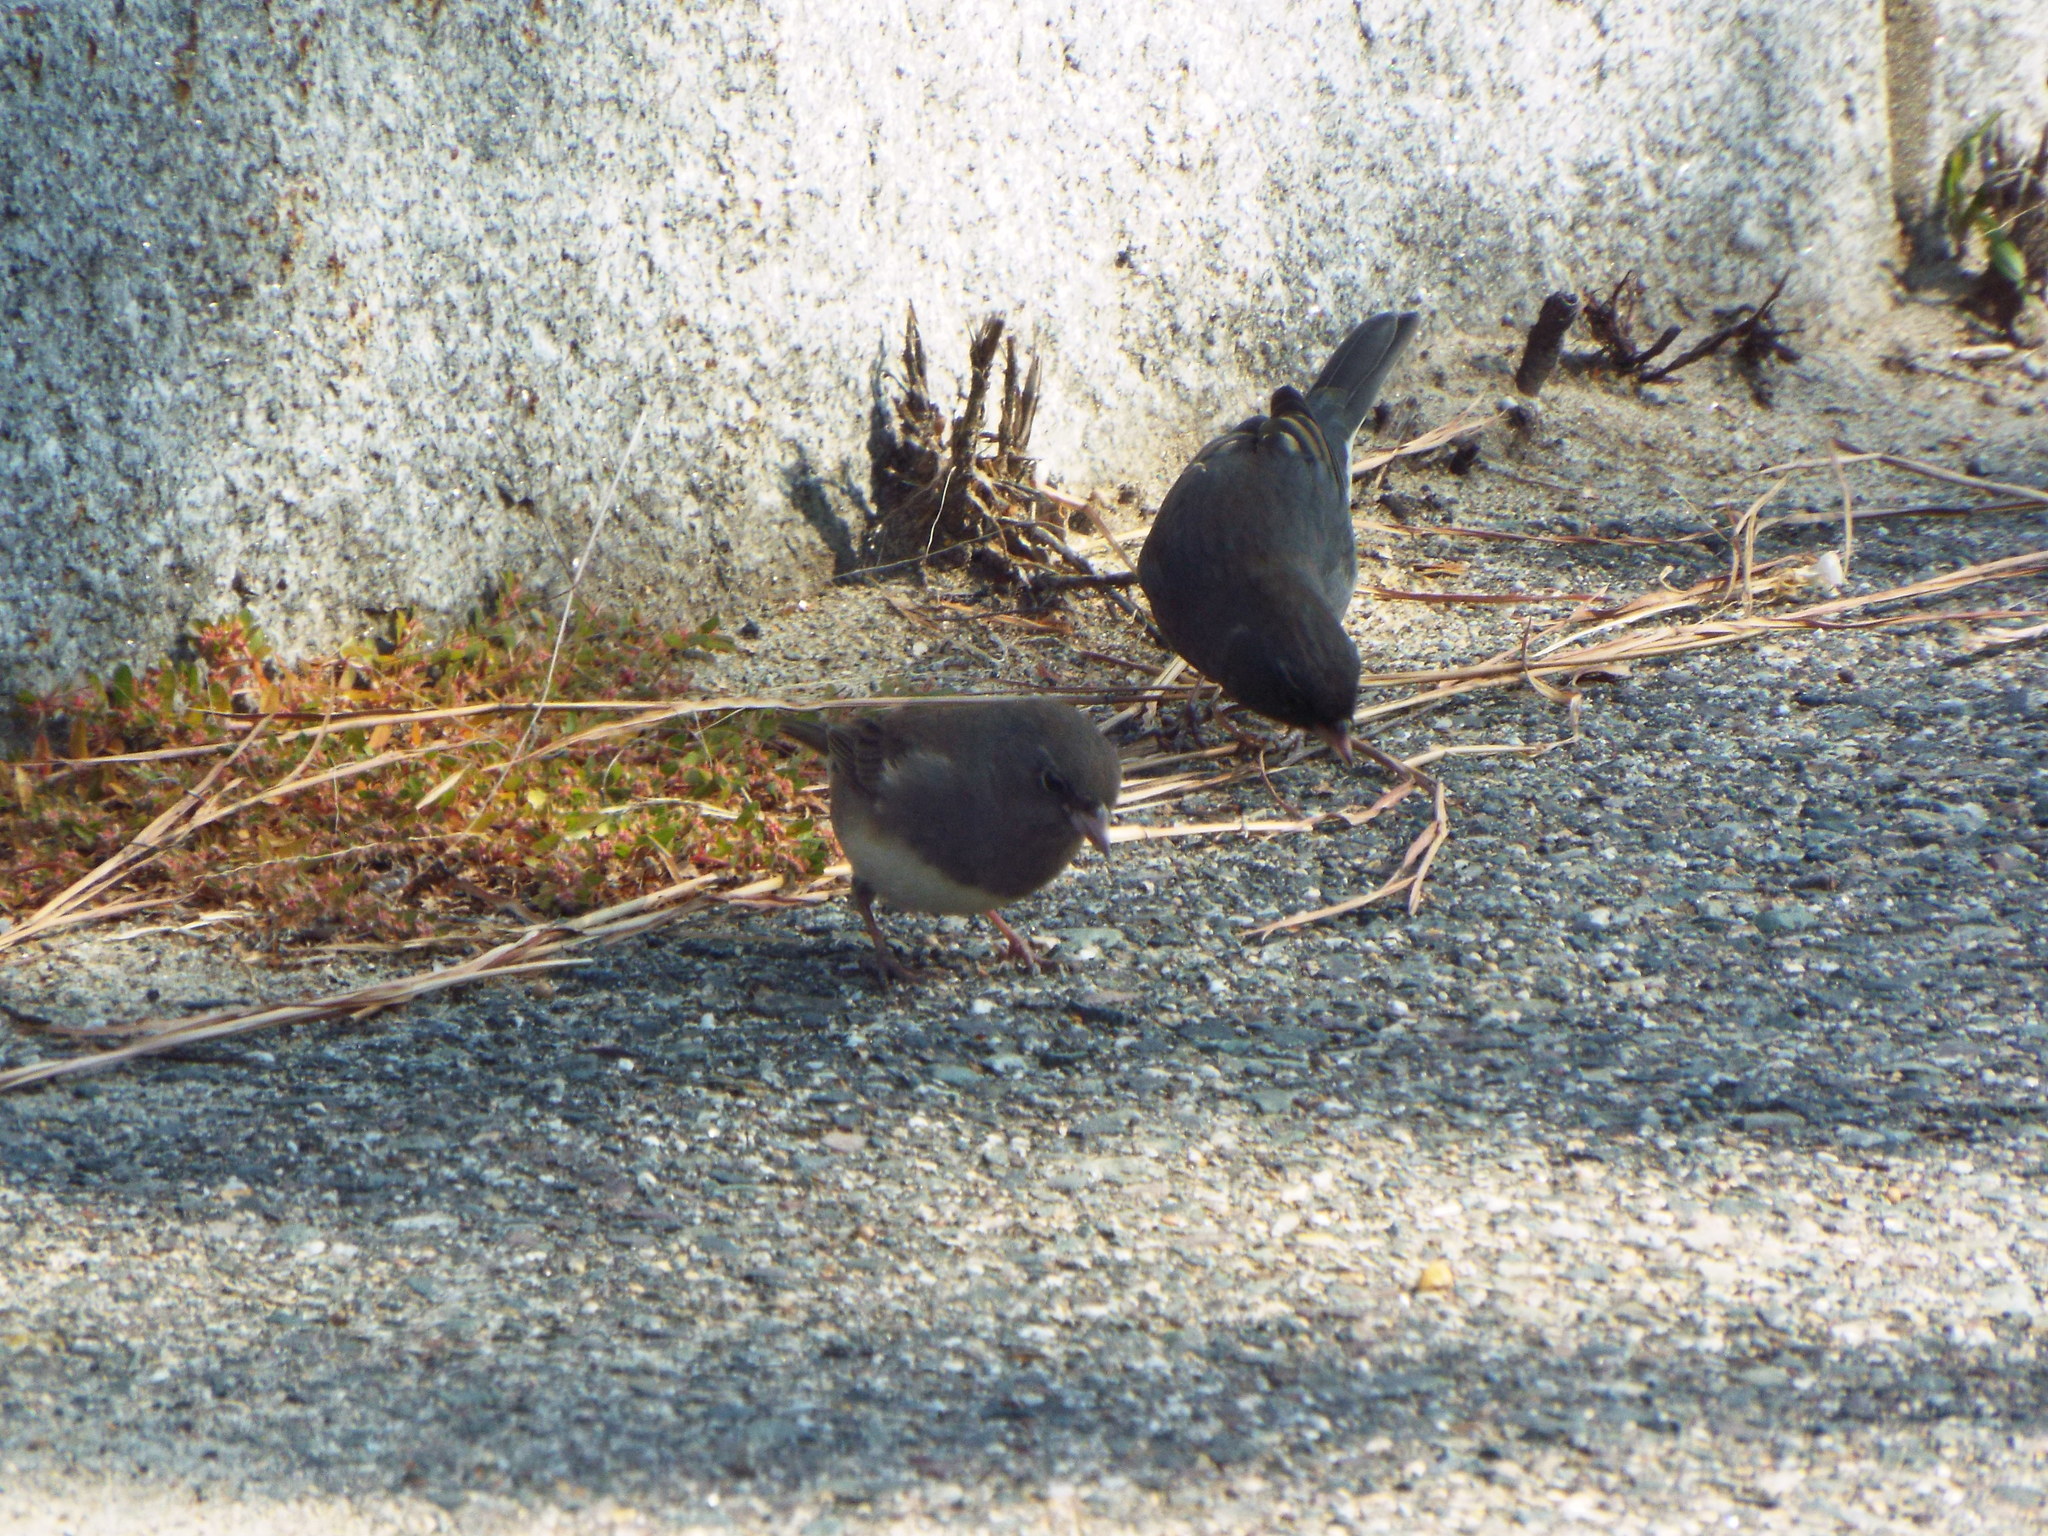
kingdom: Animalia
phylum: Chordata
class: Aves
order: Passeriformes
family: Passerellidae
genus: Junco
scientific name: Junco hyemalis
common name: Dark-eyed junco
